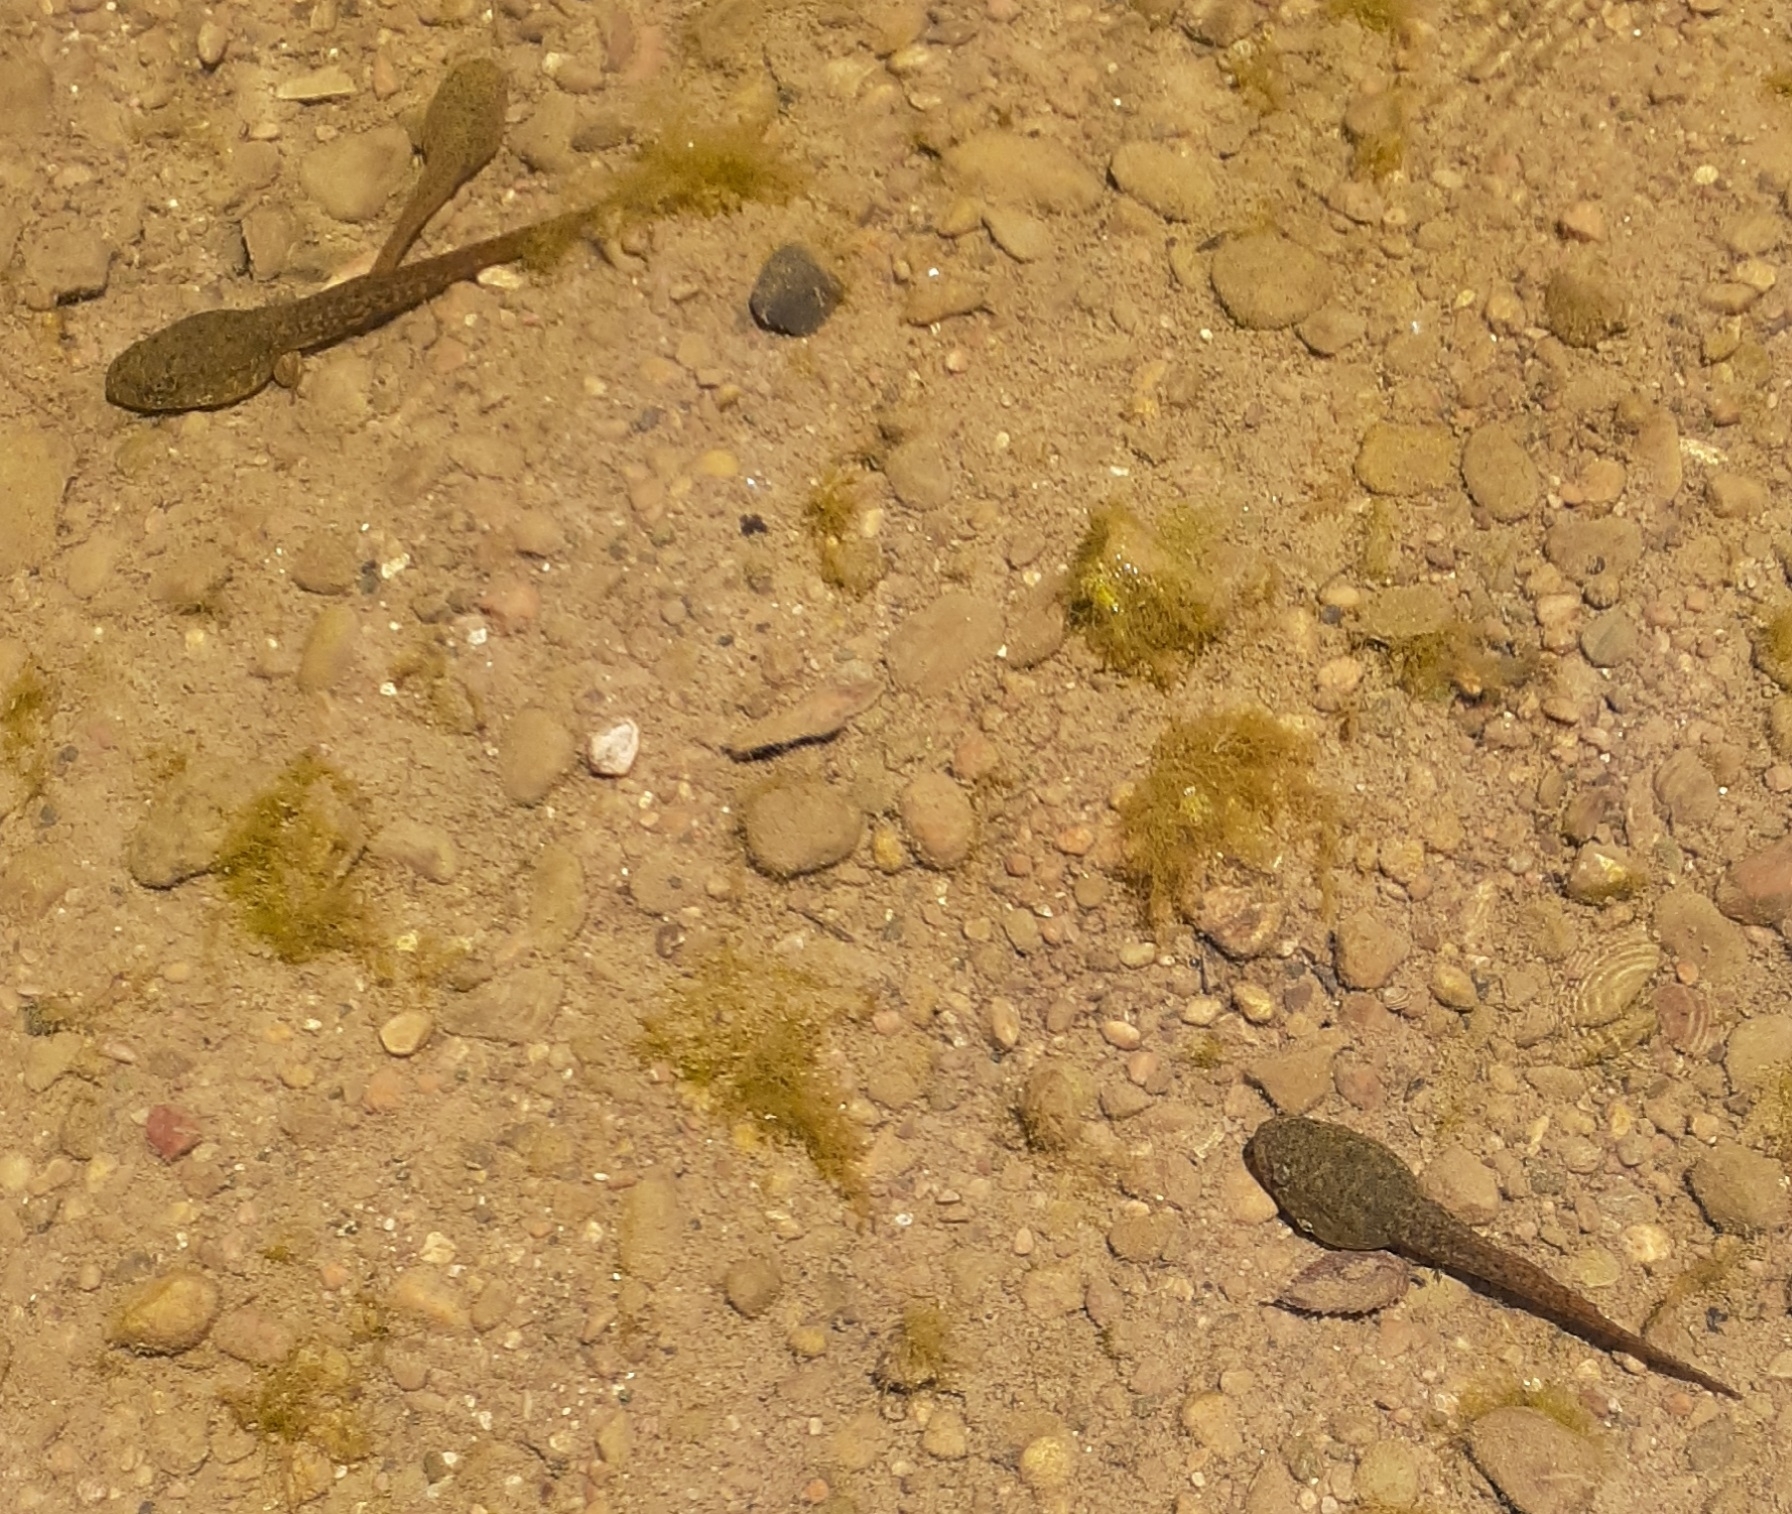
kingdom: Animalia
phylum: Chordata
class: Amphibia
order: Anura
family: Ranidae
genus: Lithobates
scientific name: Lithobates catesbeianus
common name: American bullfrog
